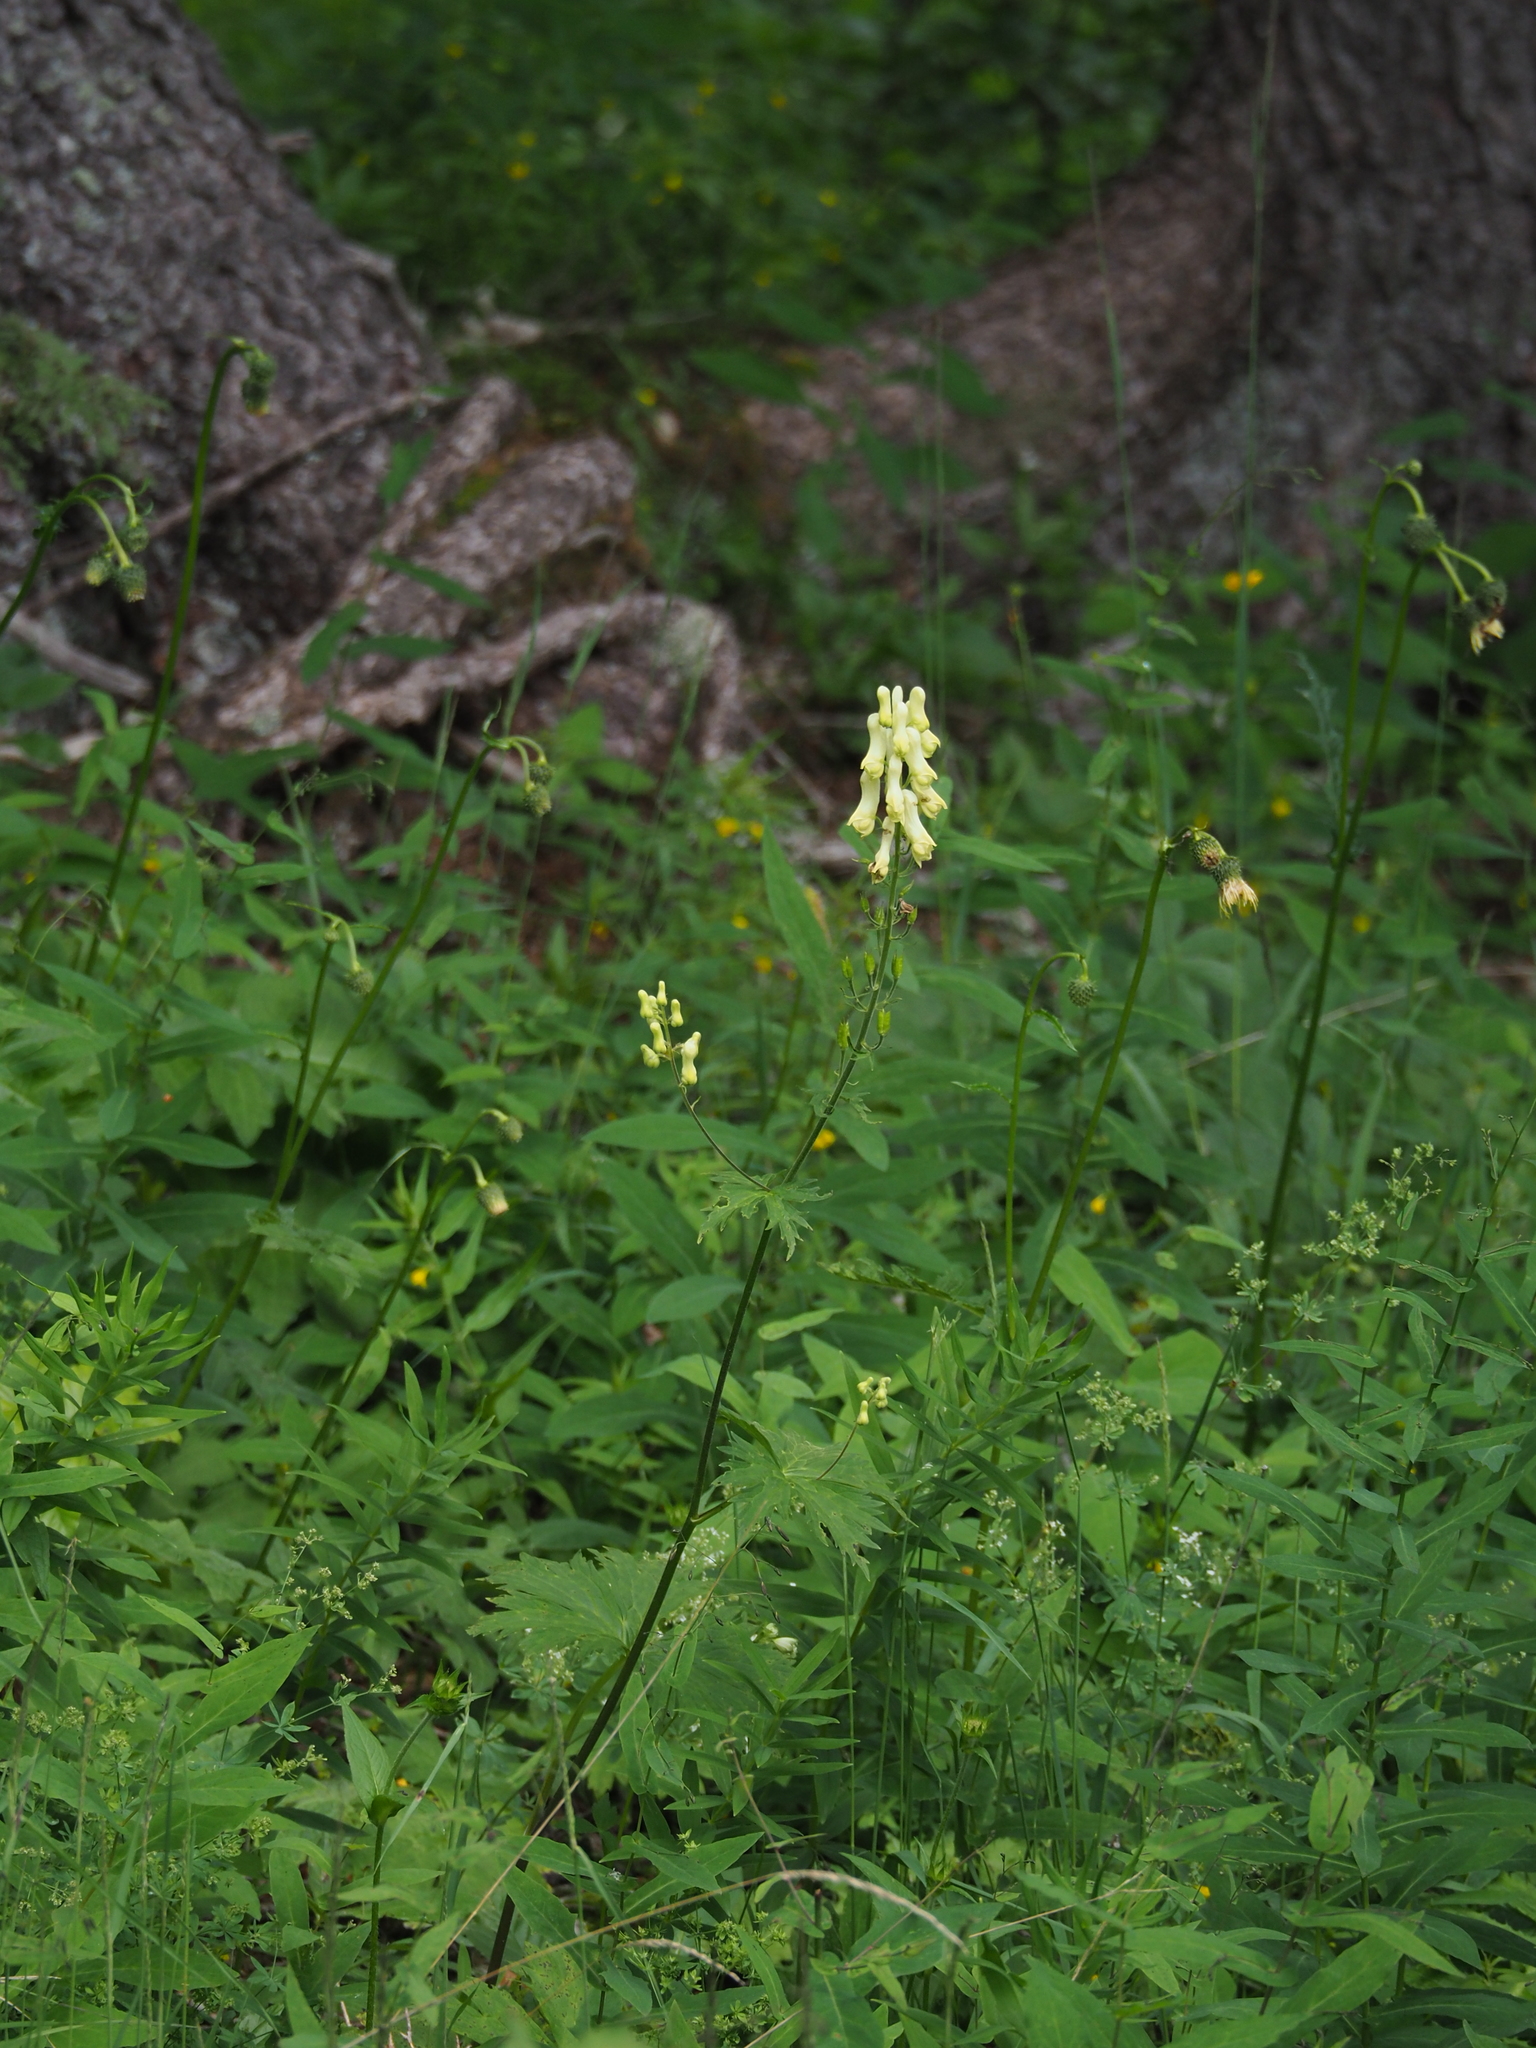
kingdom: Plantae
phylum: Tracheophyta
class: Magnoliopsida
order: Ranunculales
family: Ranunculaceae
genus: Aconitum
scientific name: Aconitum lycoctonum
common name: Wolf's-bane
